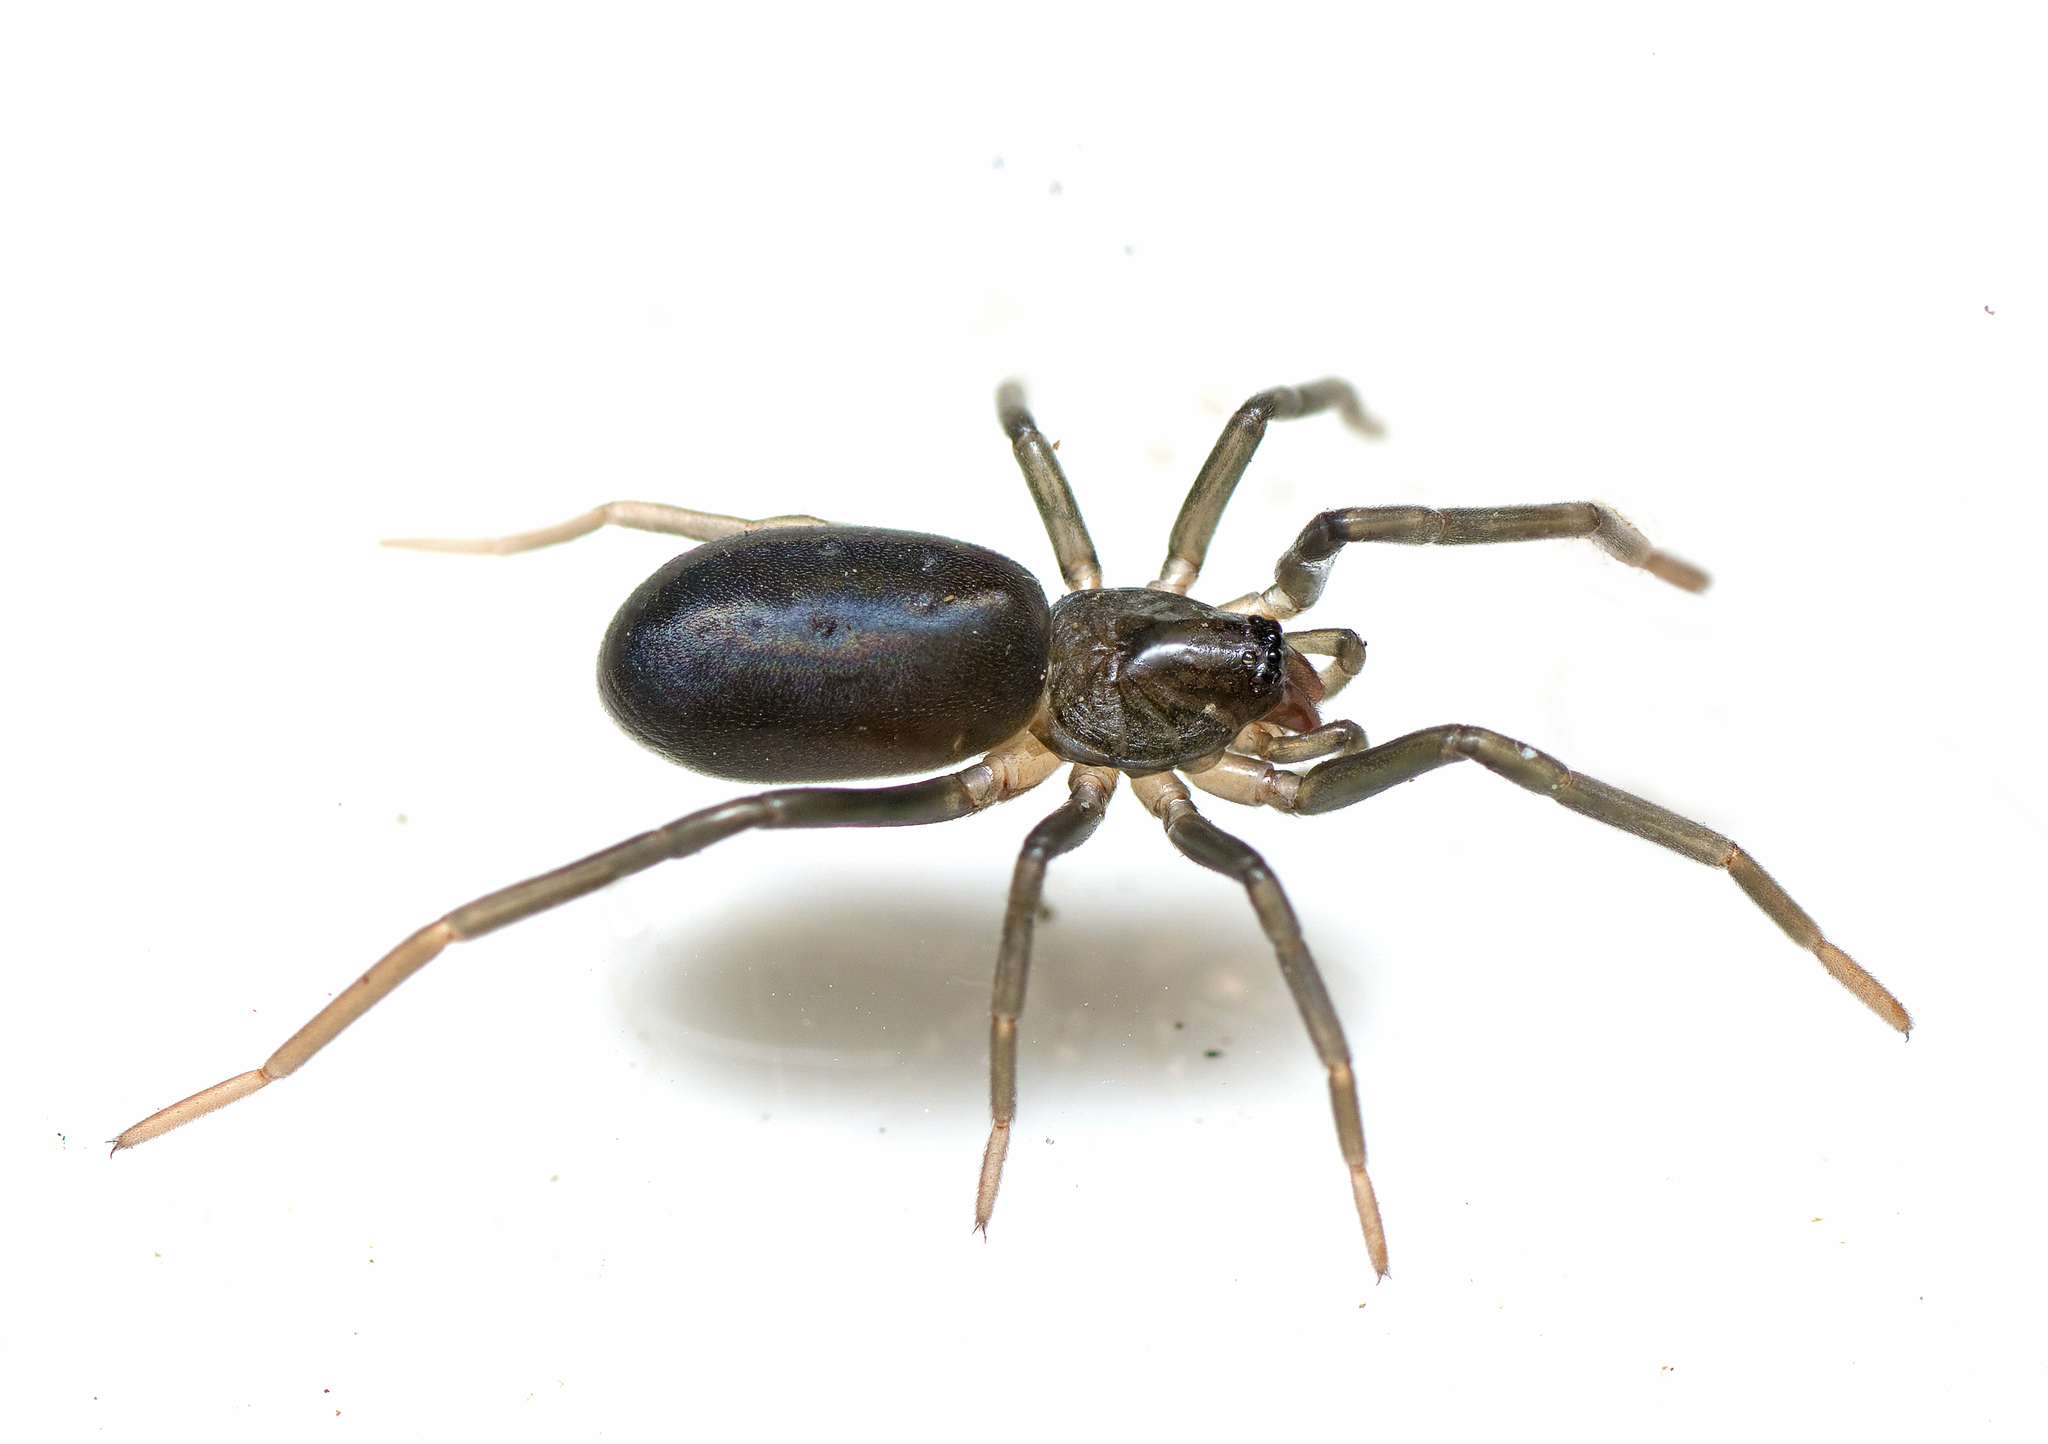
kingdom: Animalia
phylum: Arthropoda
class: Arachnida
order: Araneae
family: Trachycosmidae
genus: Meedo
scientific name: Meedo gympie
